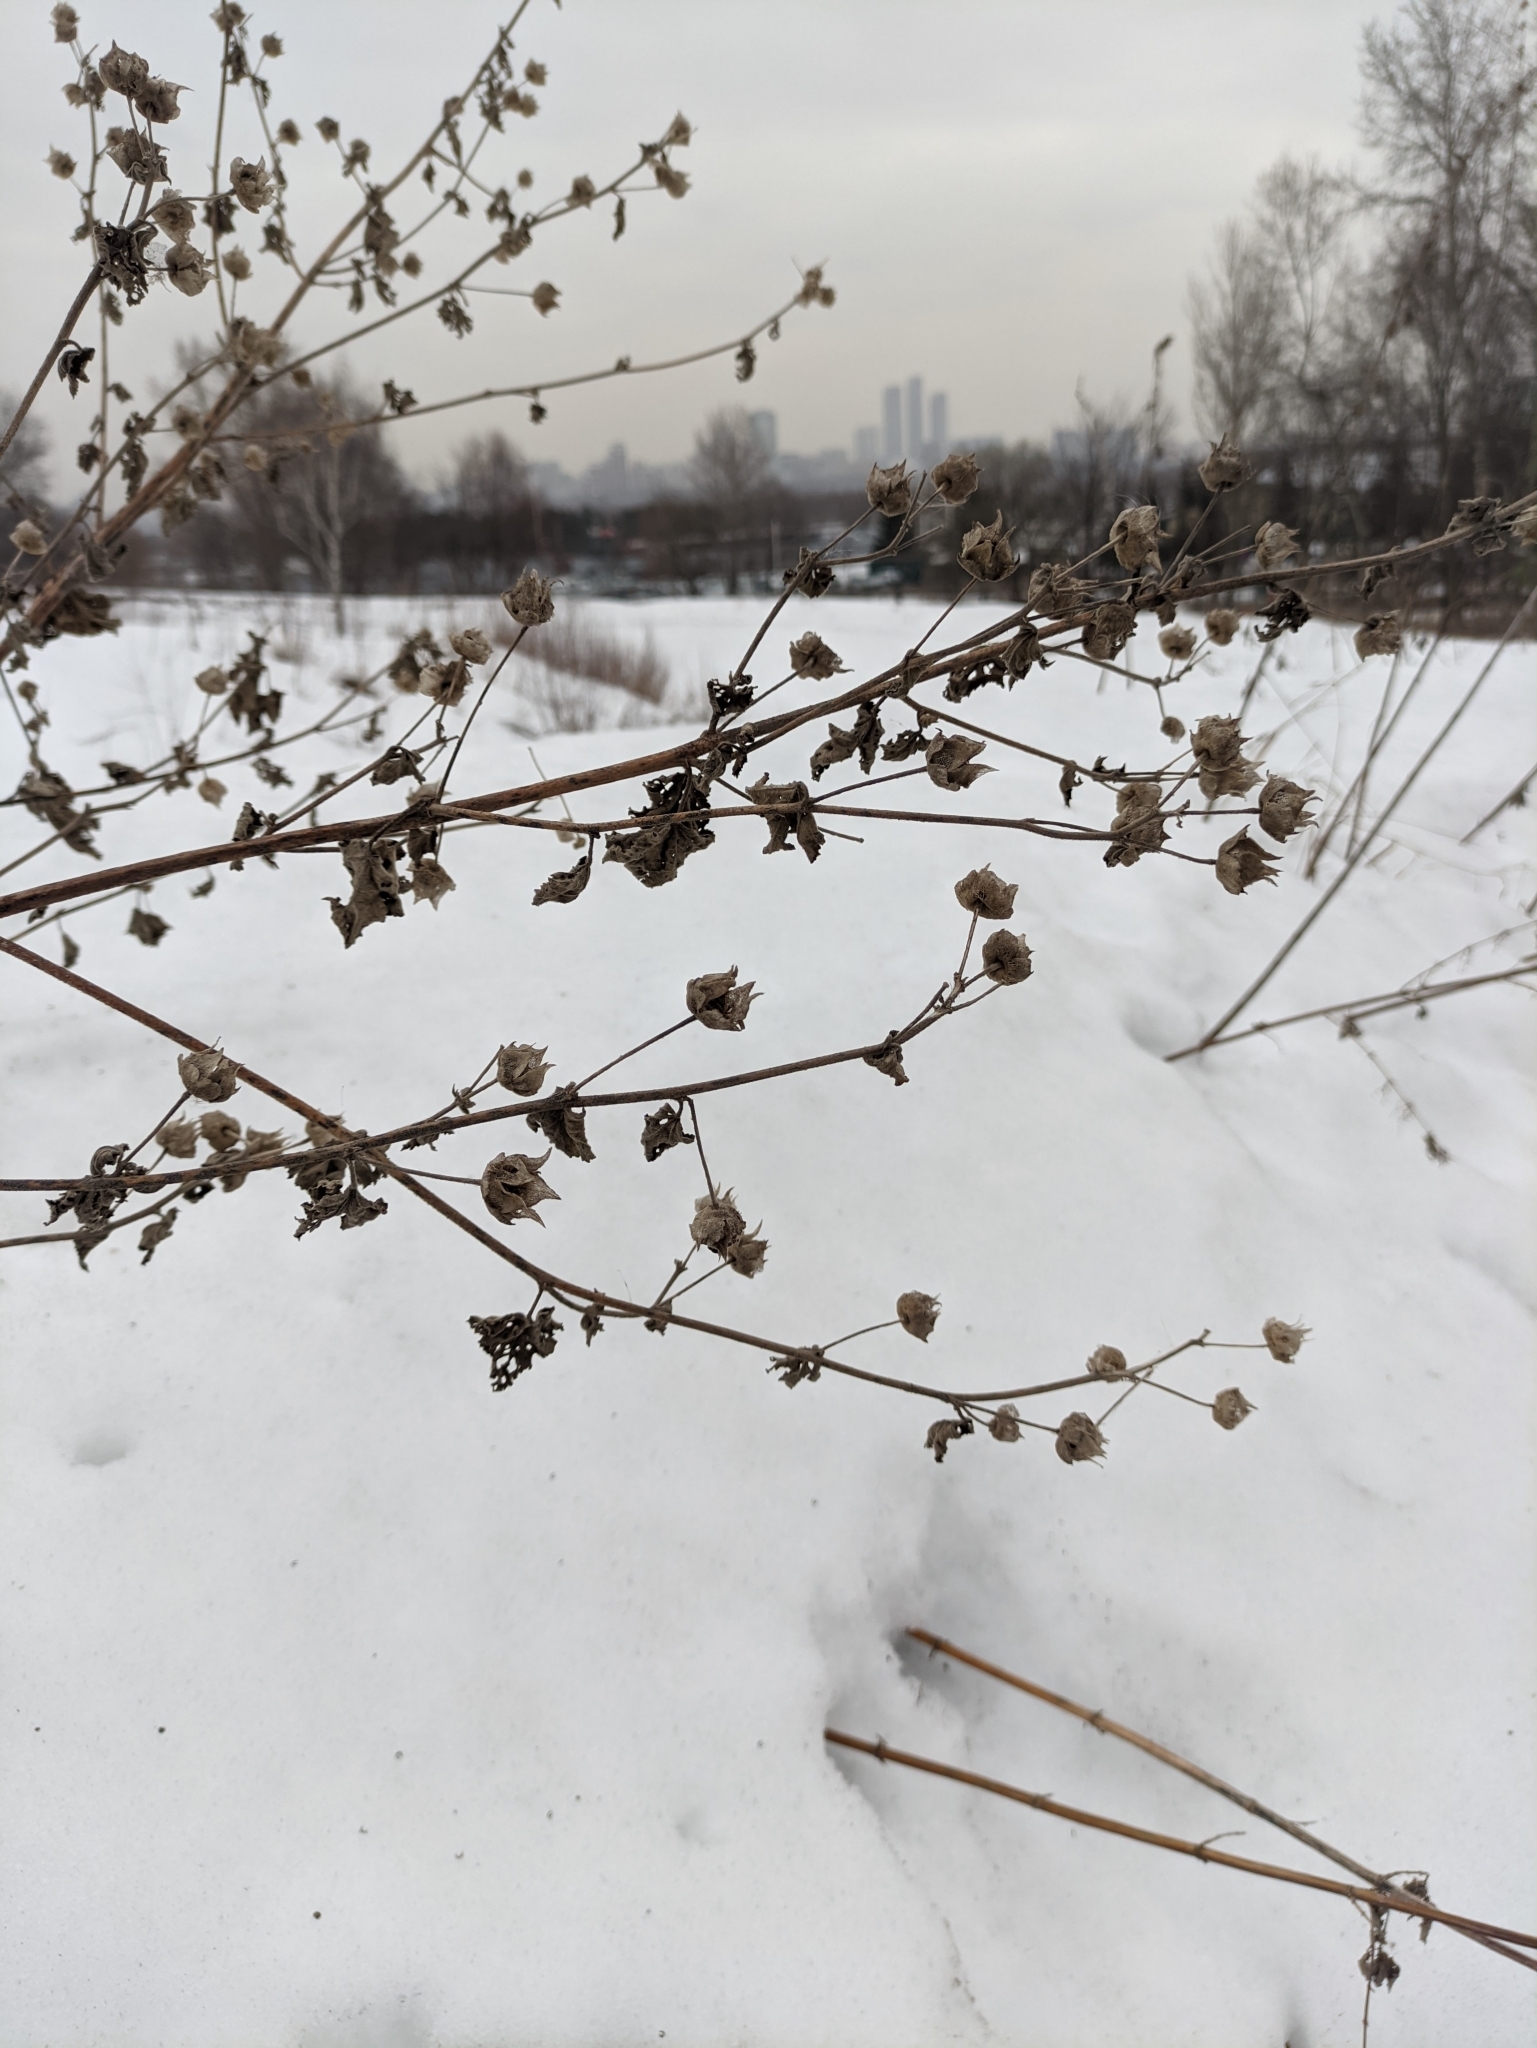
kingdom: Plantae
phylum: Tracheophyta
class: Magnoliopsida
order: Malvales
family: Malvaceae
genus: Malva
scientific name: Malva thuringiaca
